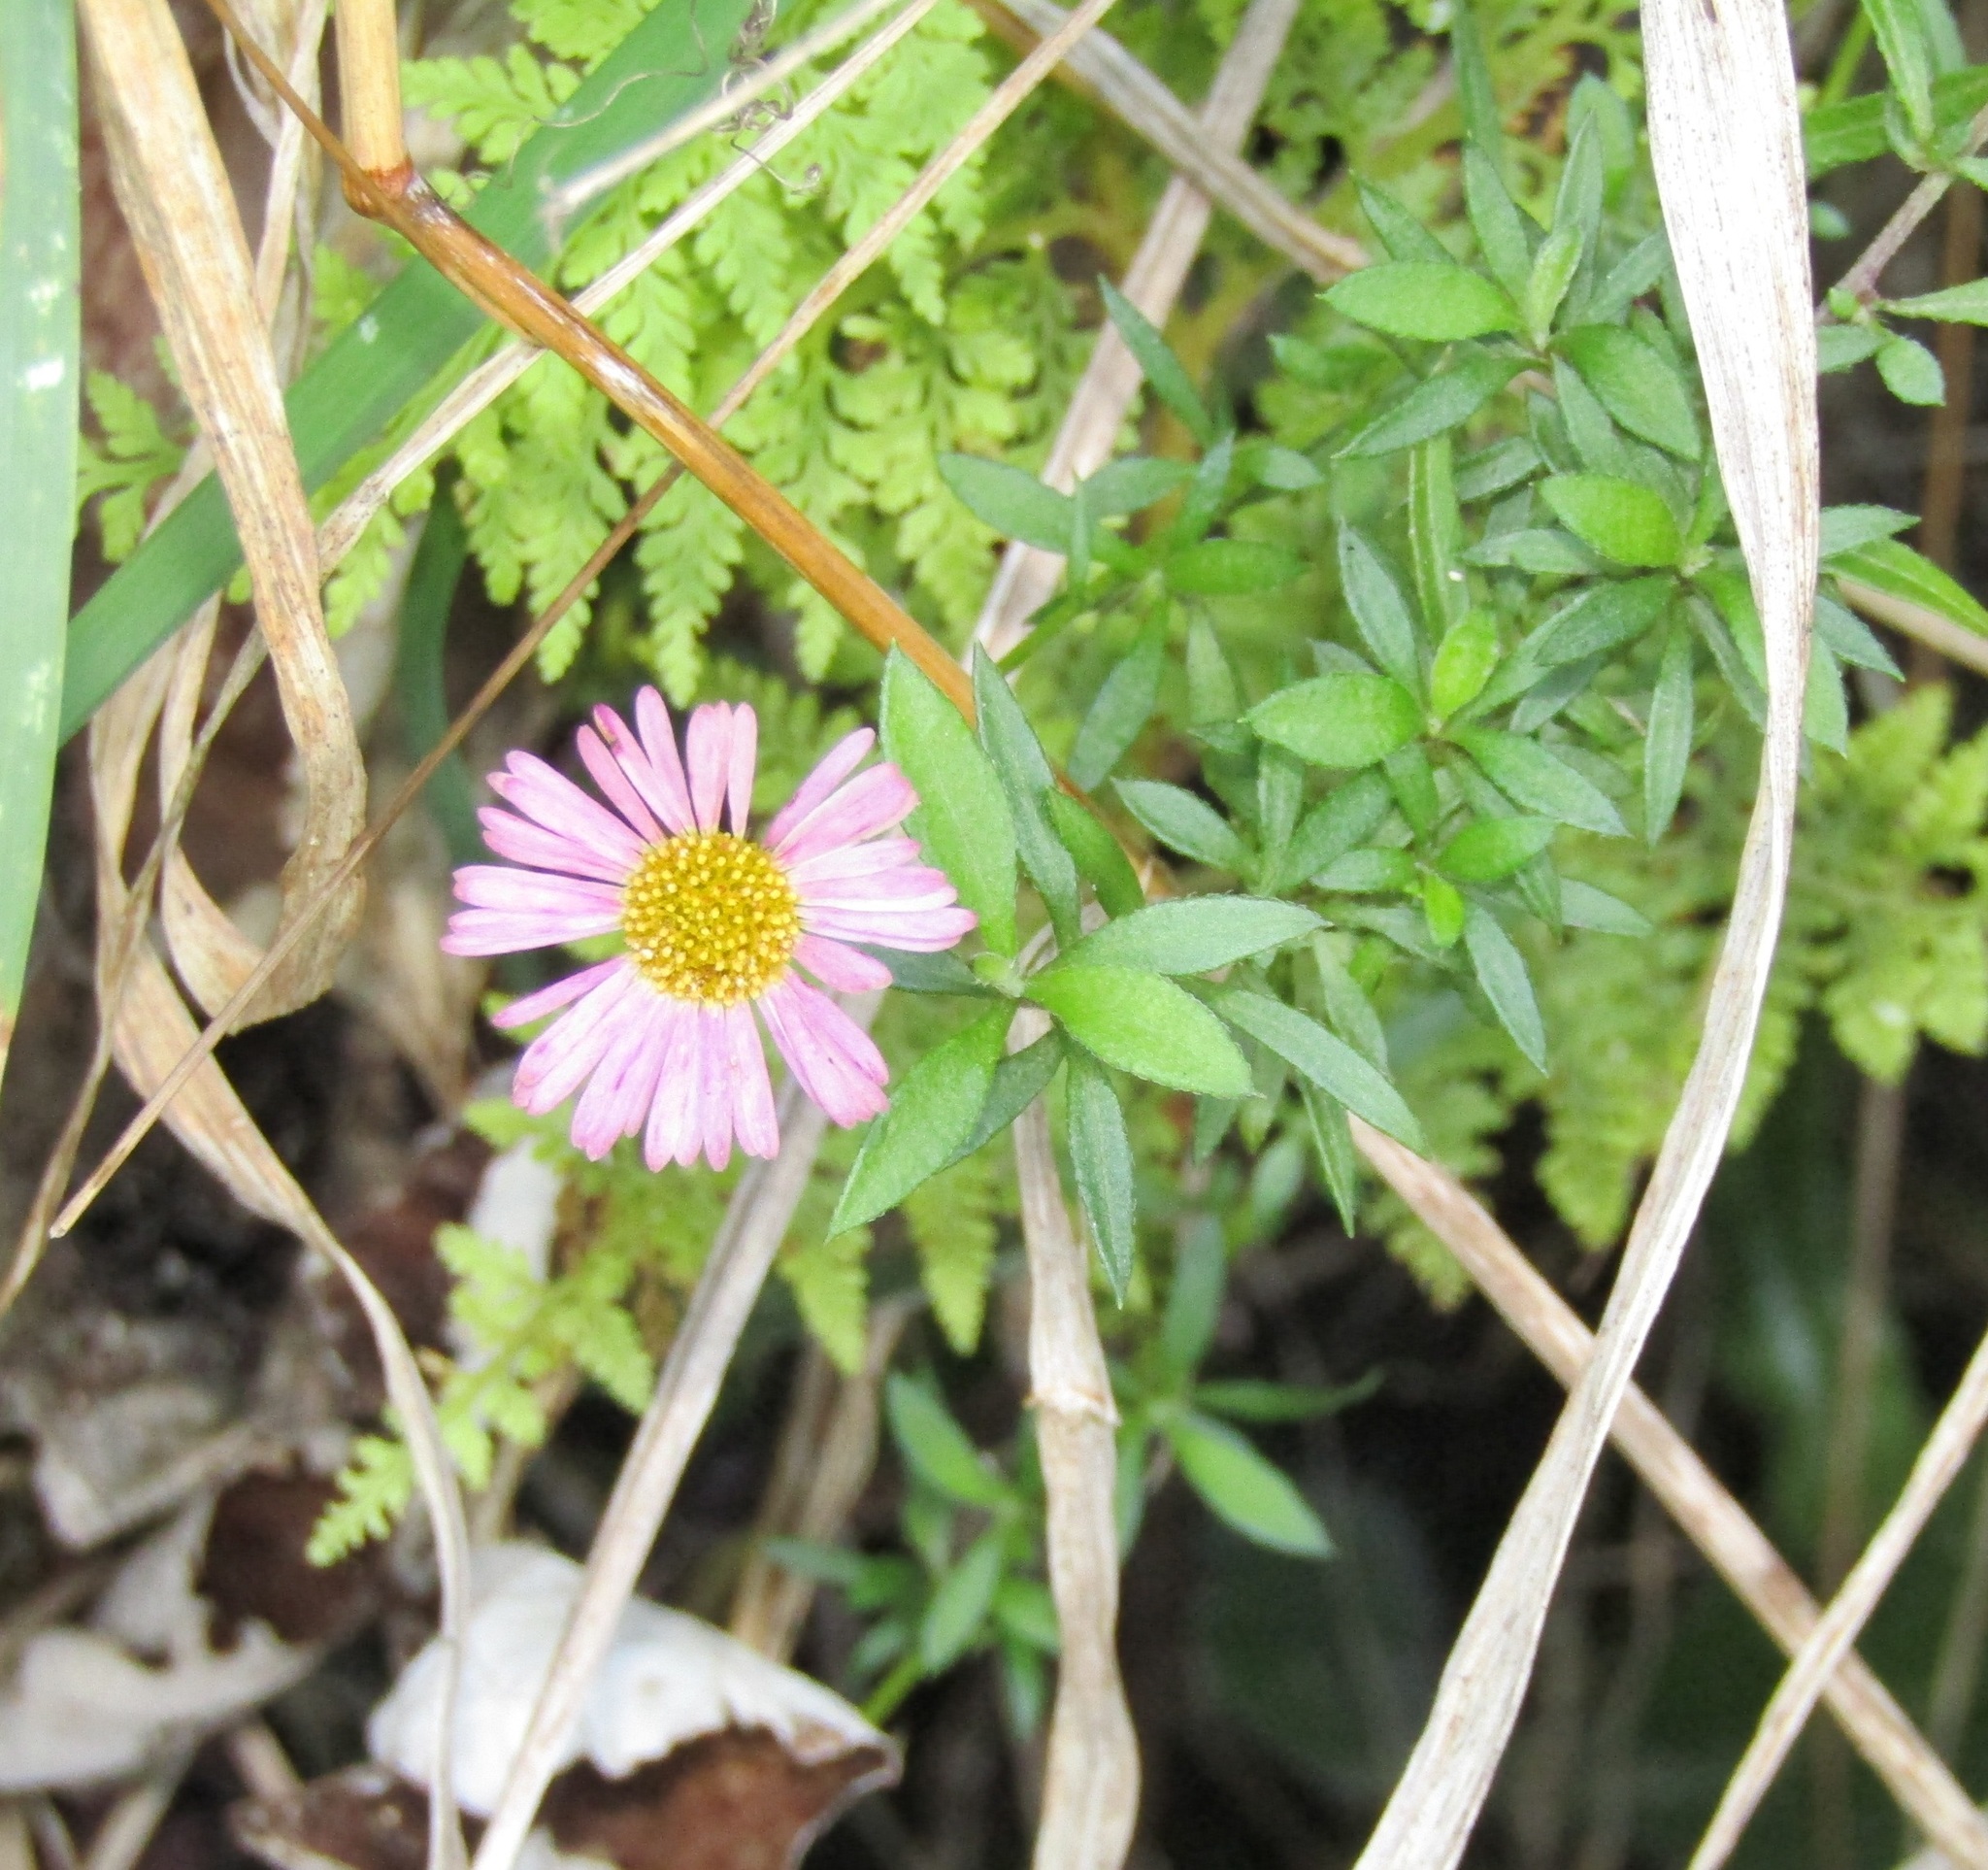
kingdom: Plantae
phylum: Tracheophyta
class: Magnoliopsida
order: Asterales
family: Asteraceae
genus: Erigeron
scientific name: Erigeron karvinskianus
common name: Mexican fleabane
